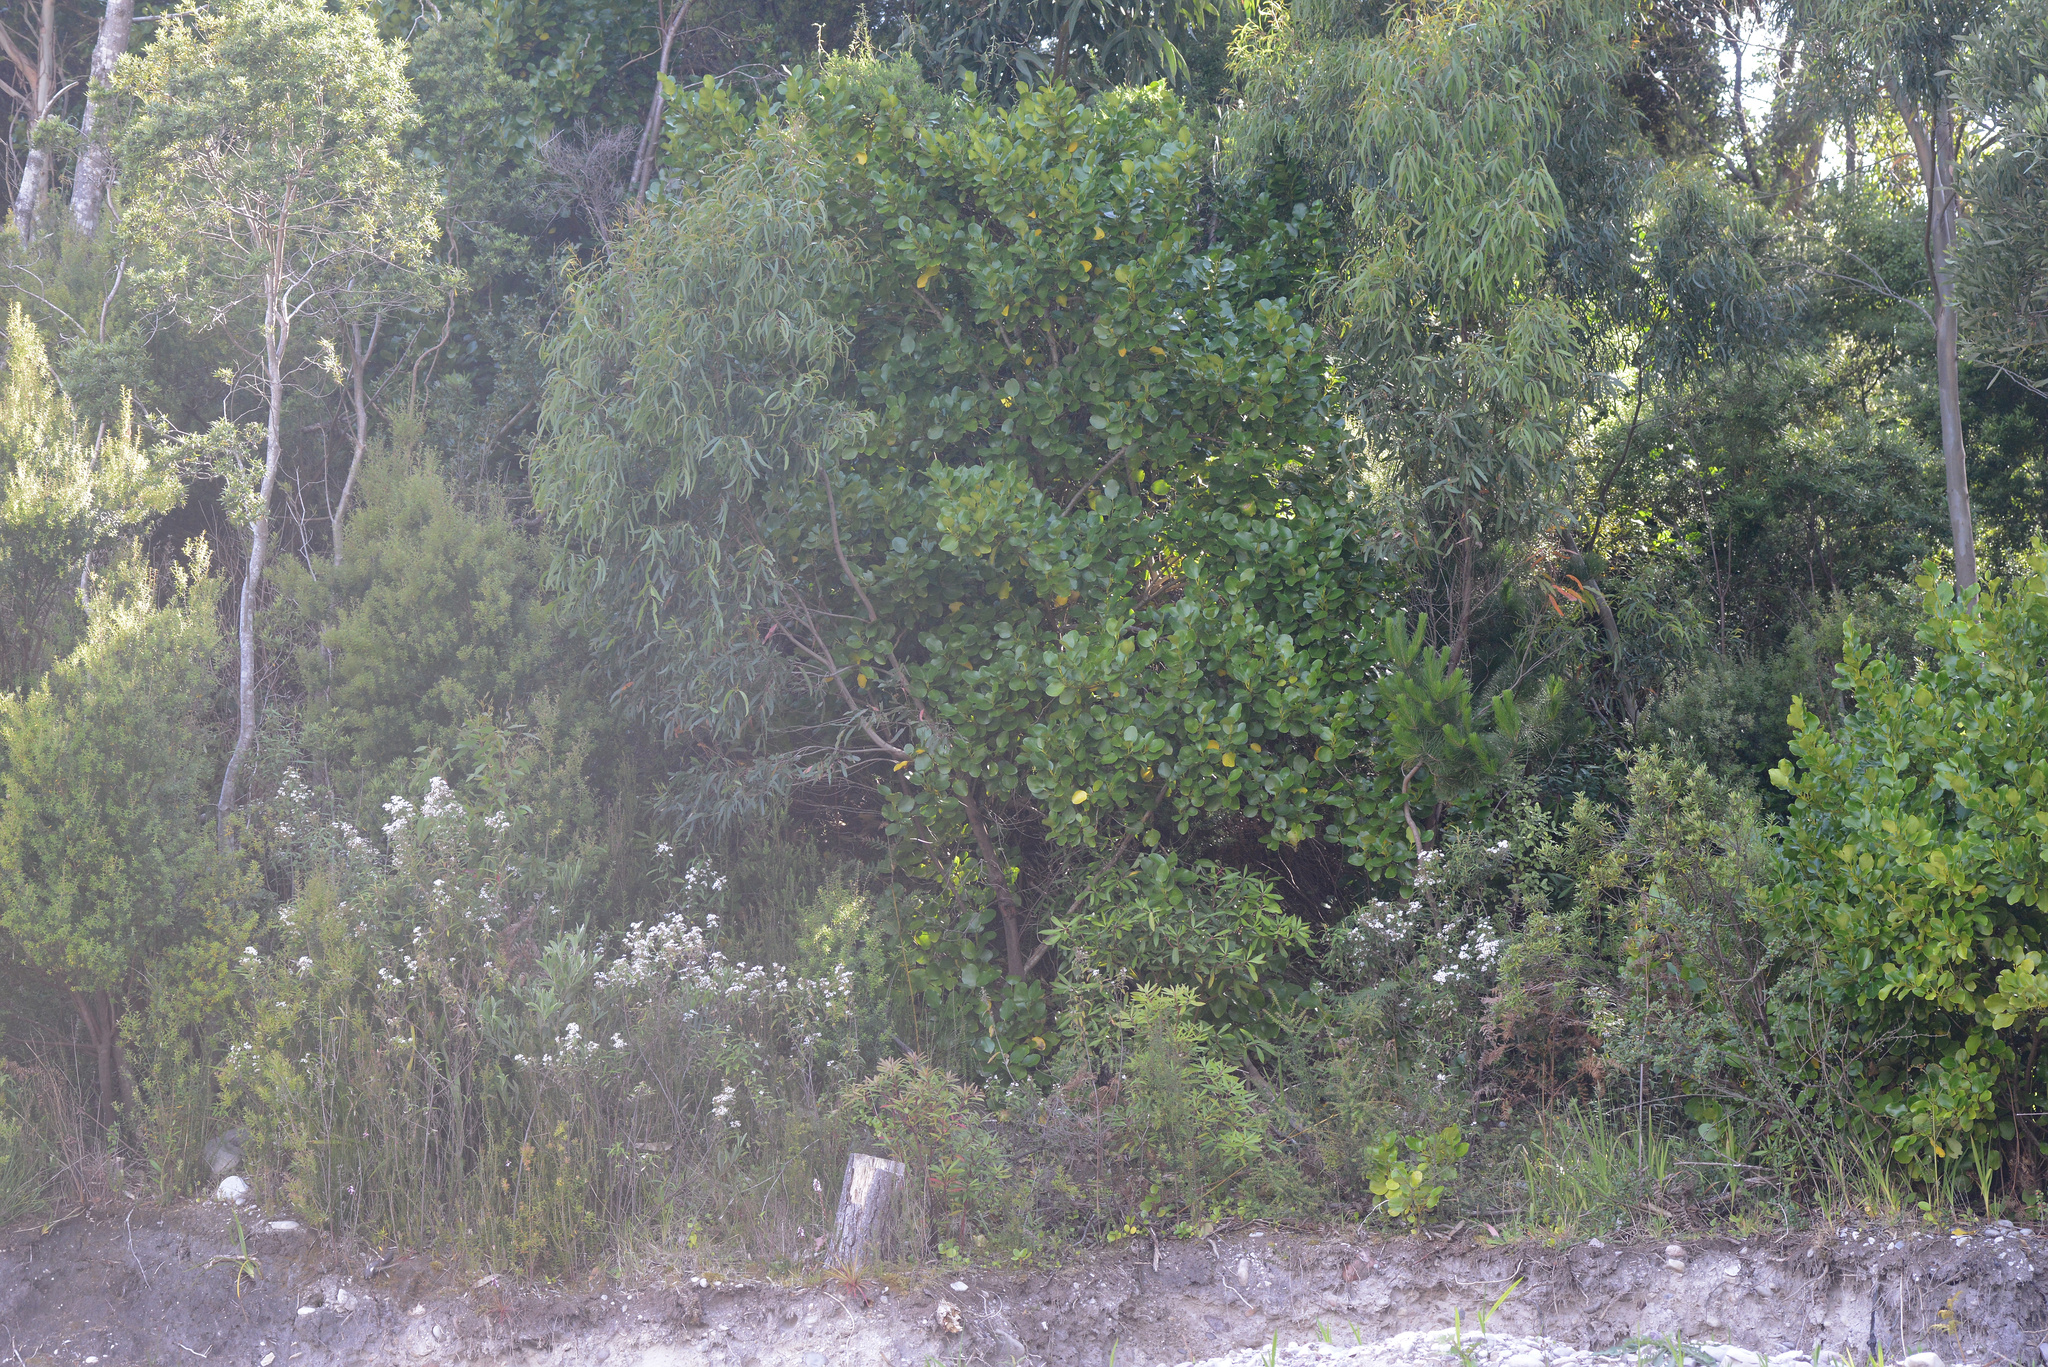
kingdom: Plantae
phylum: Tracheophyta
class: Magnoliopsida
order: Apiales
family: Griseliniaceae
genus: Griselinia
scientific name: Griselinia littoralis
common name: New zealand broadleaf
